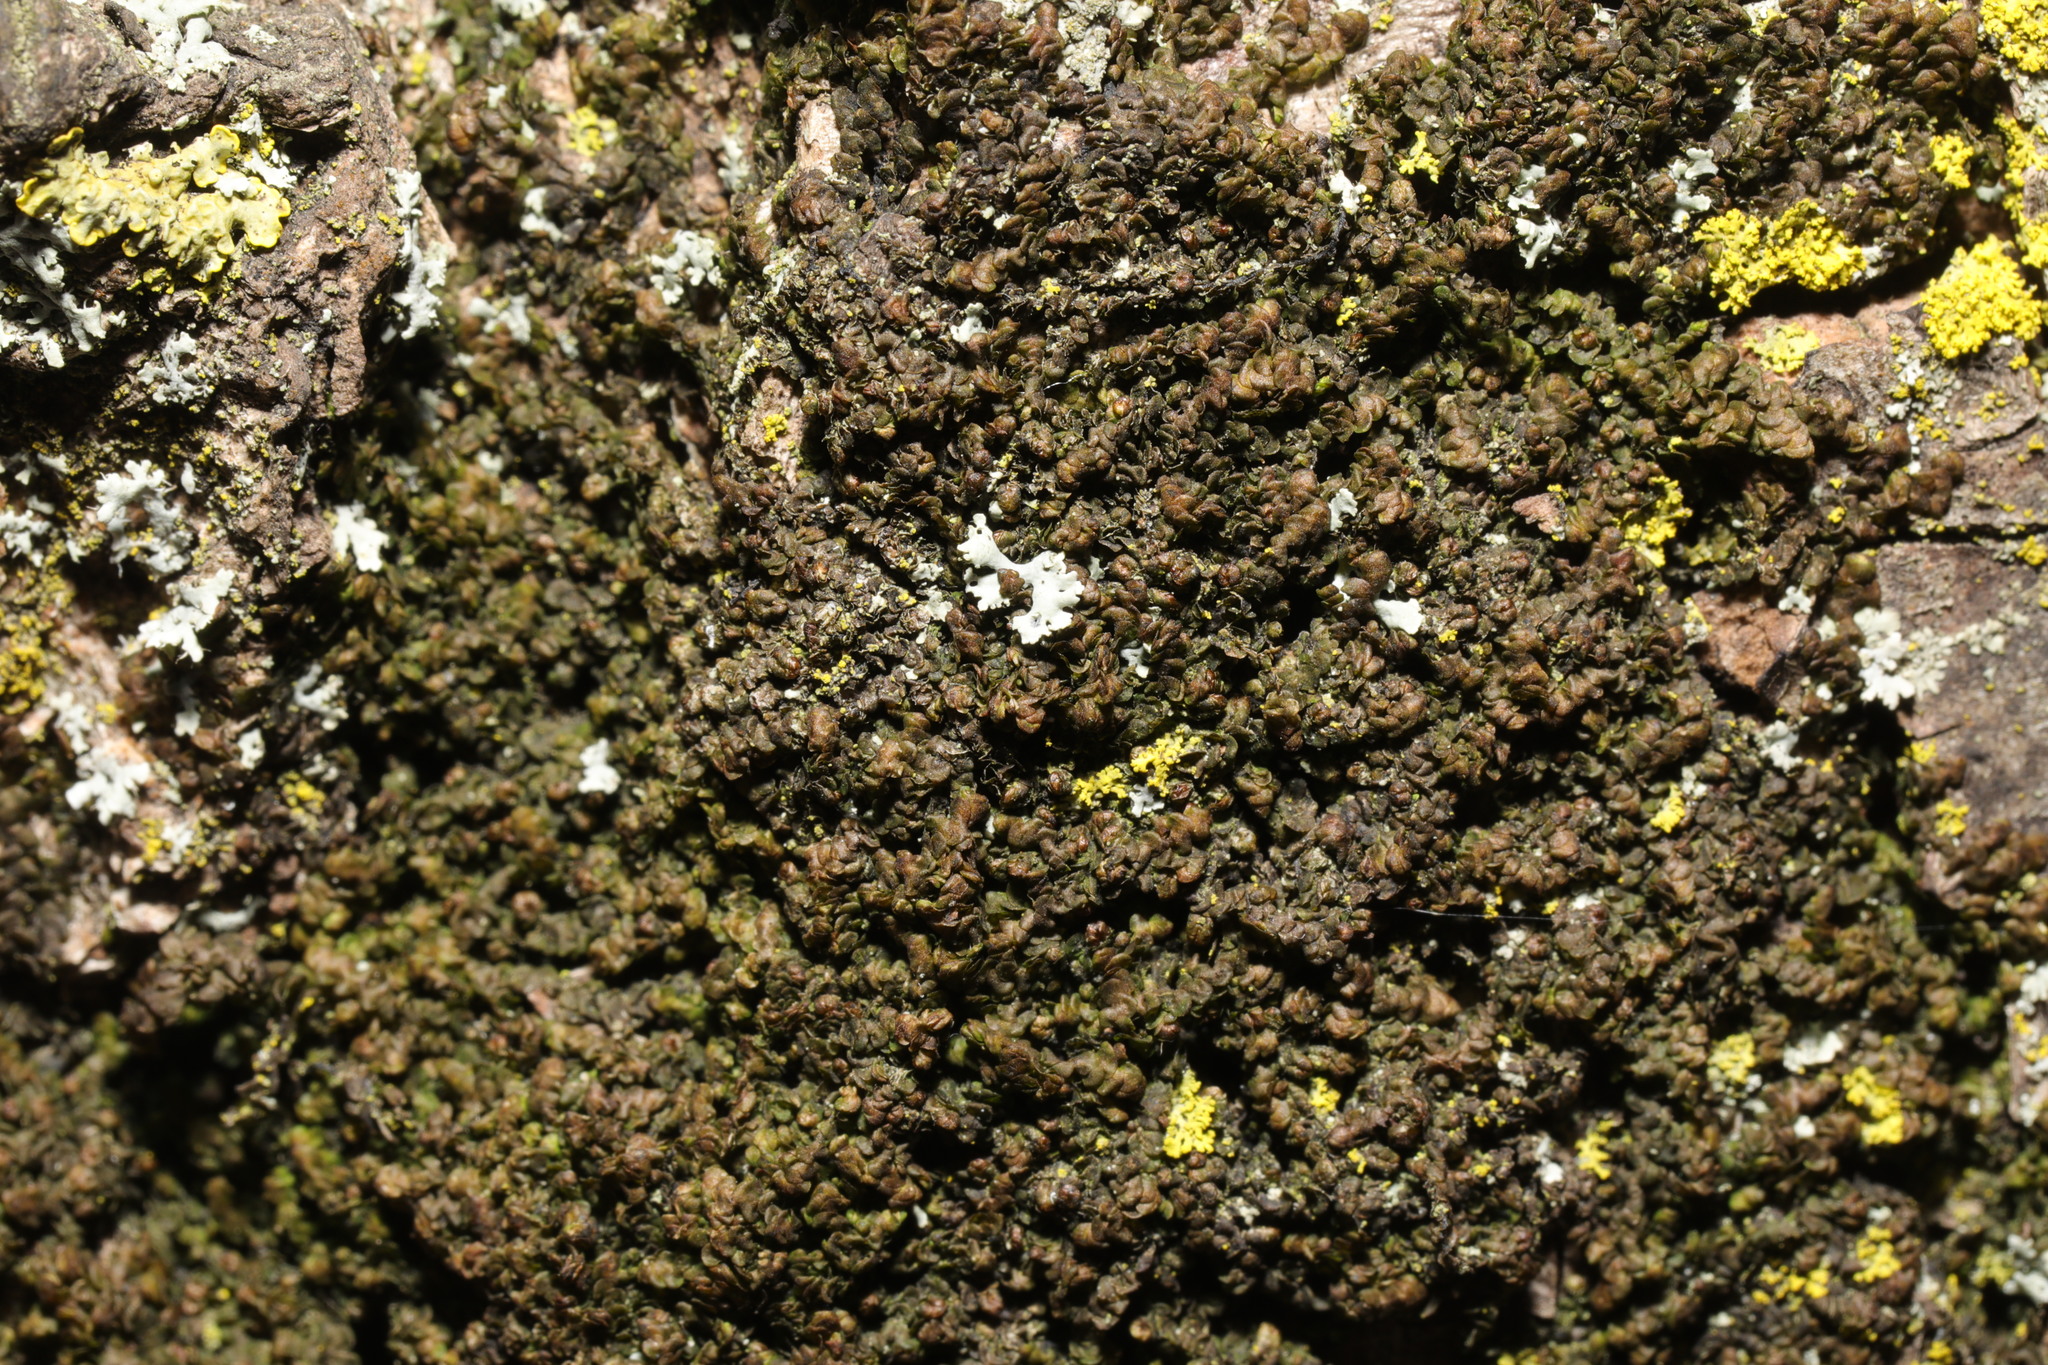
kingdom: Plantae
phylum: Marchantiophyta
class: Jungermanniopsida
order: Porellales
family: Frullaniaceae
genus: Frullania
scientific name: Frullania dilatata
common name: Dilated scalewort
